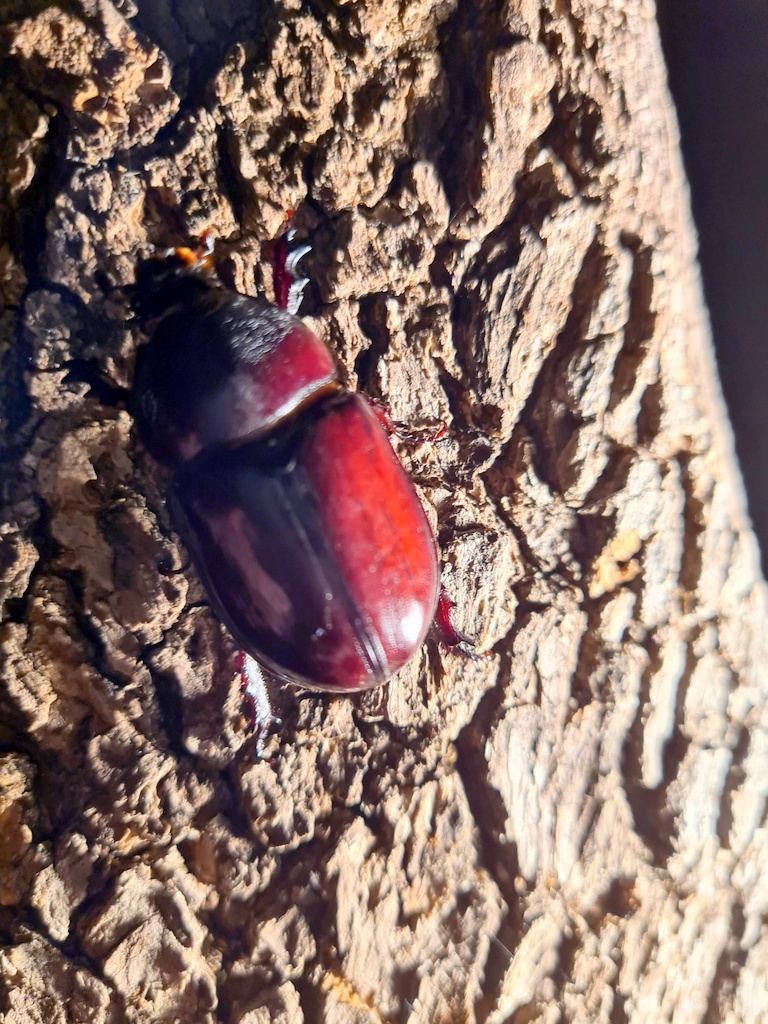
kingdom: Animalia
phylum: Arthropoda
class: Insecta
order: Coleoptera
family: Scarabaeidae
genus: Oryctes
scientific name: Oryctes boas
